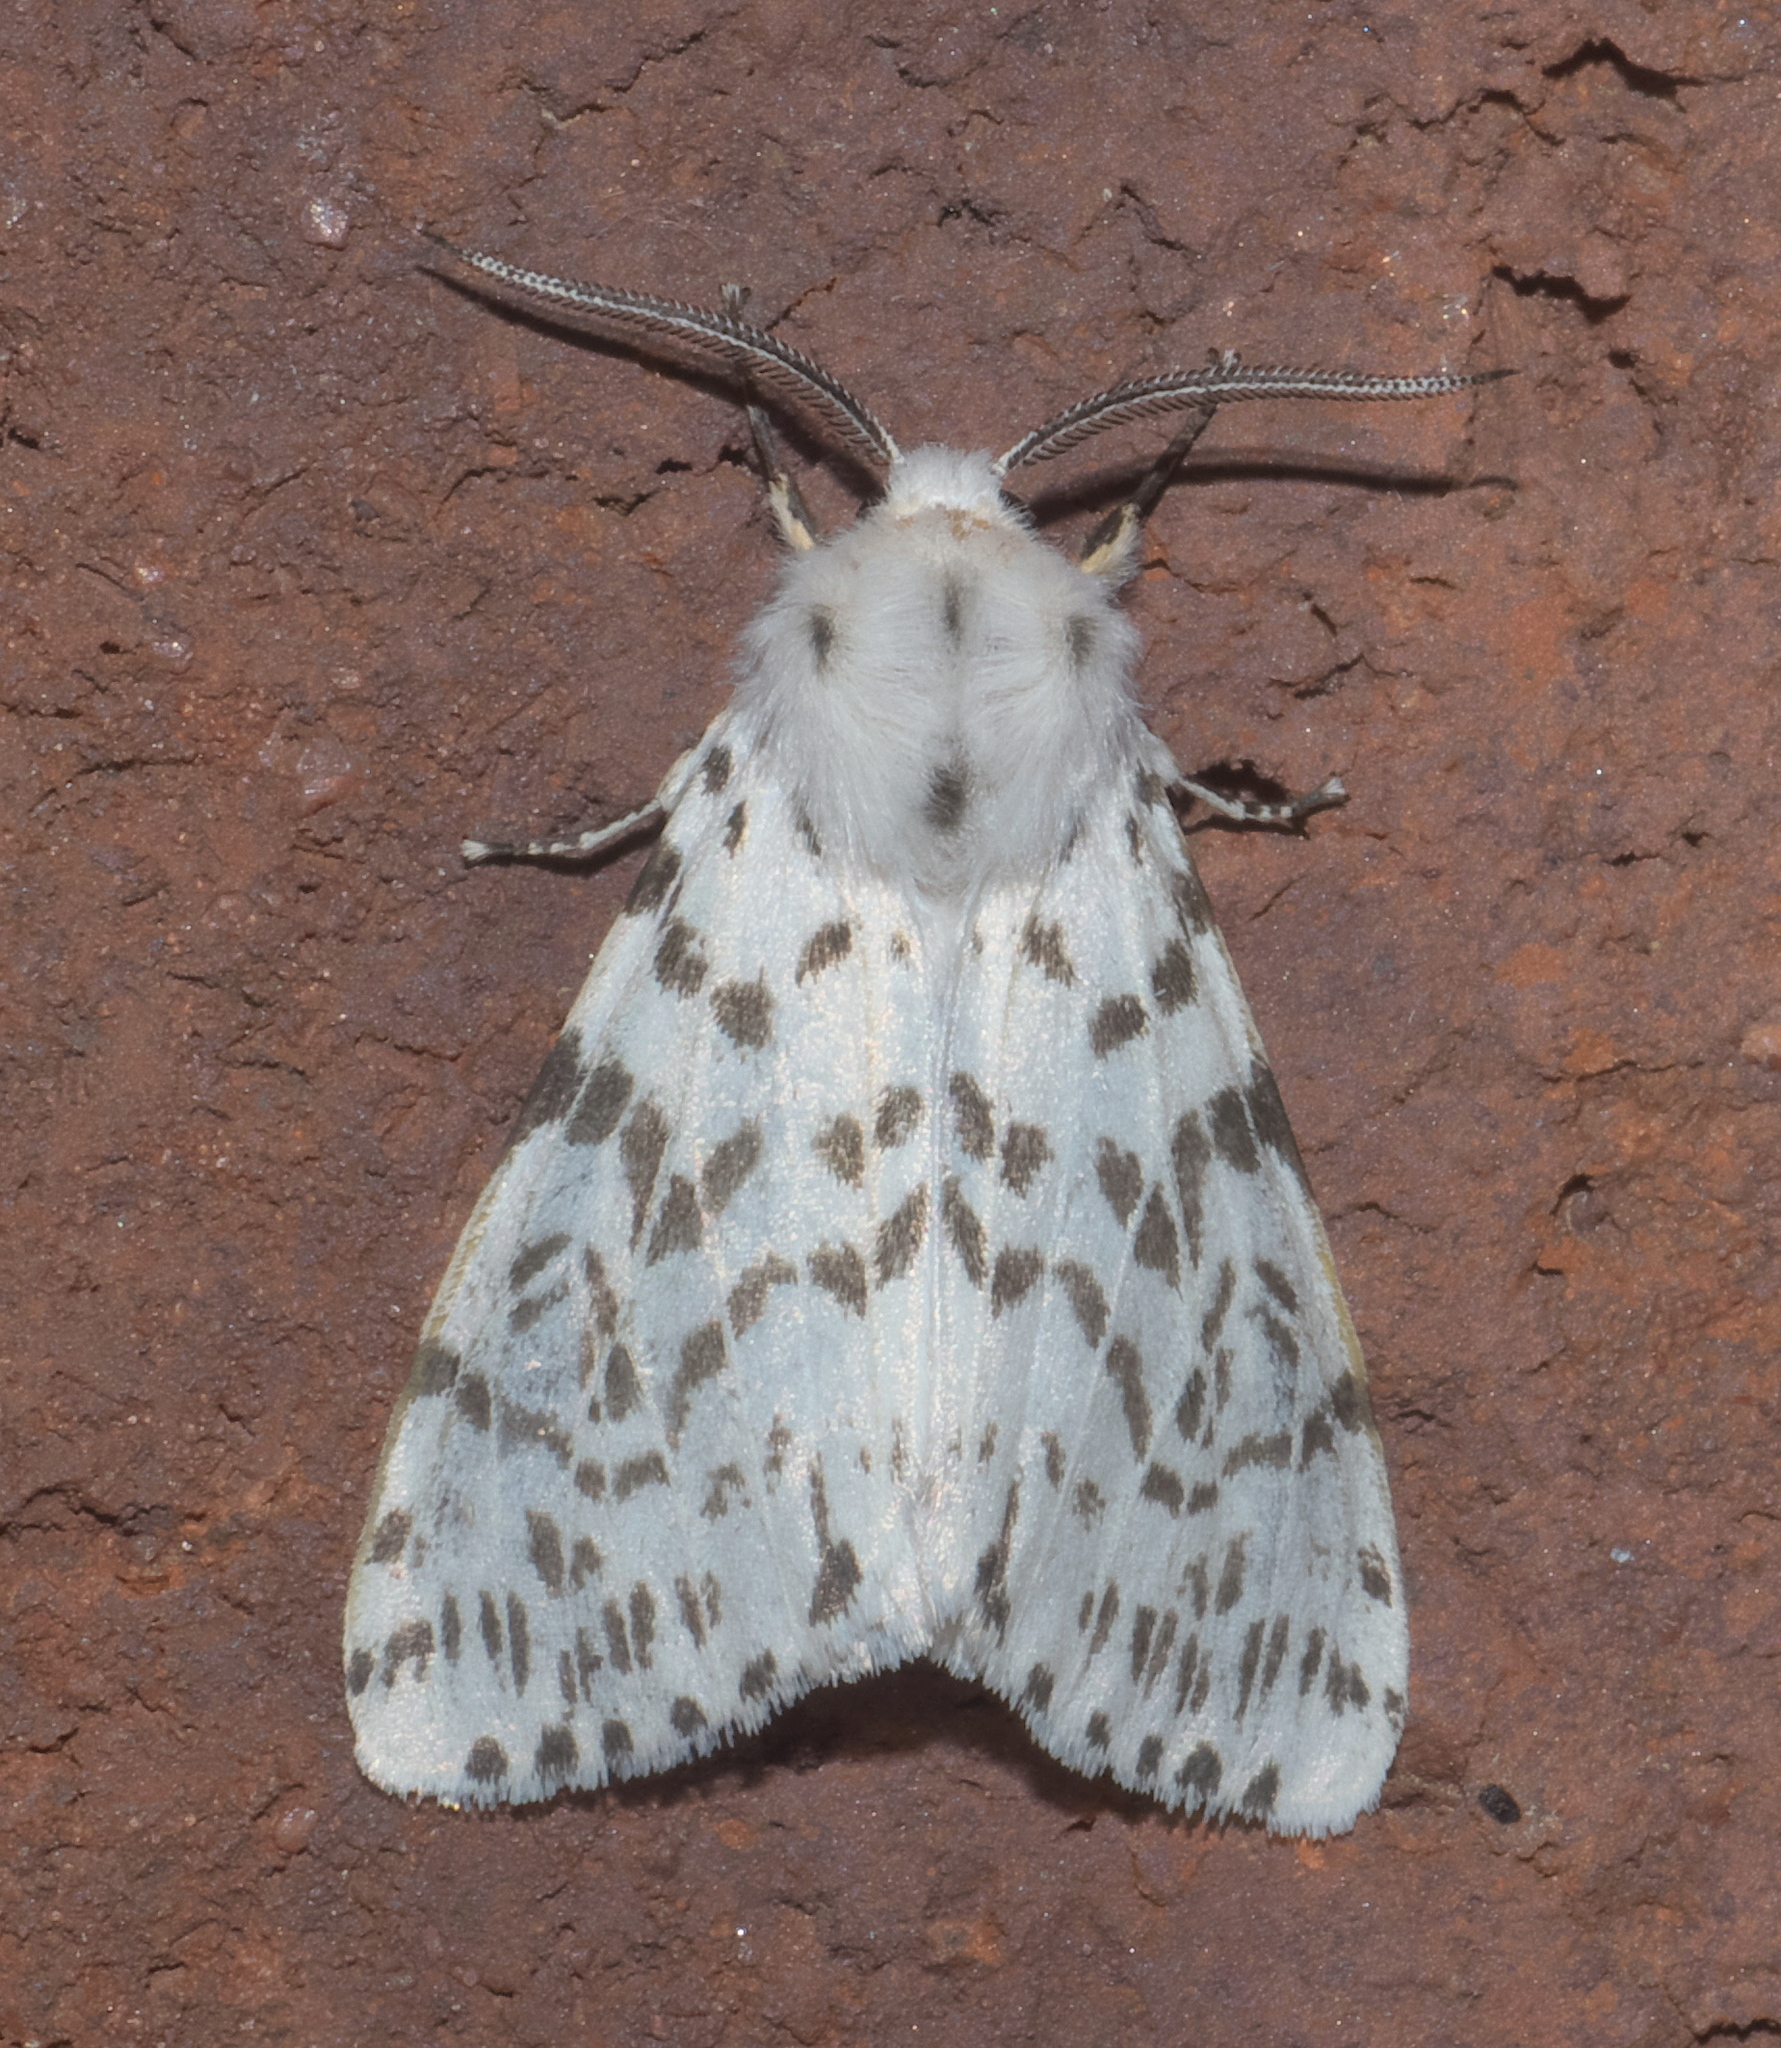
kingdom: Animalia
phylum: Arthropoda
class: Insecta
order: Lepidoptera
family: Erebidae
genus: Hyphantria
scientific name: Hyphantria cunea
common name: American white moth
